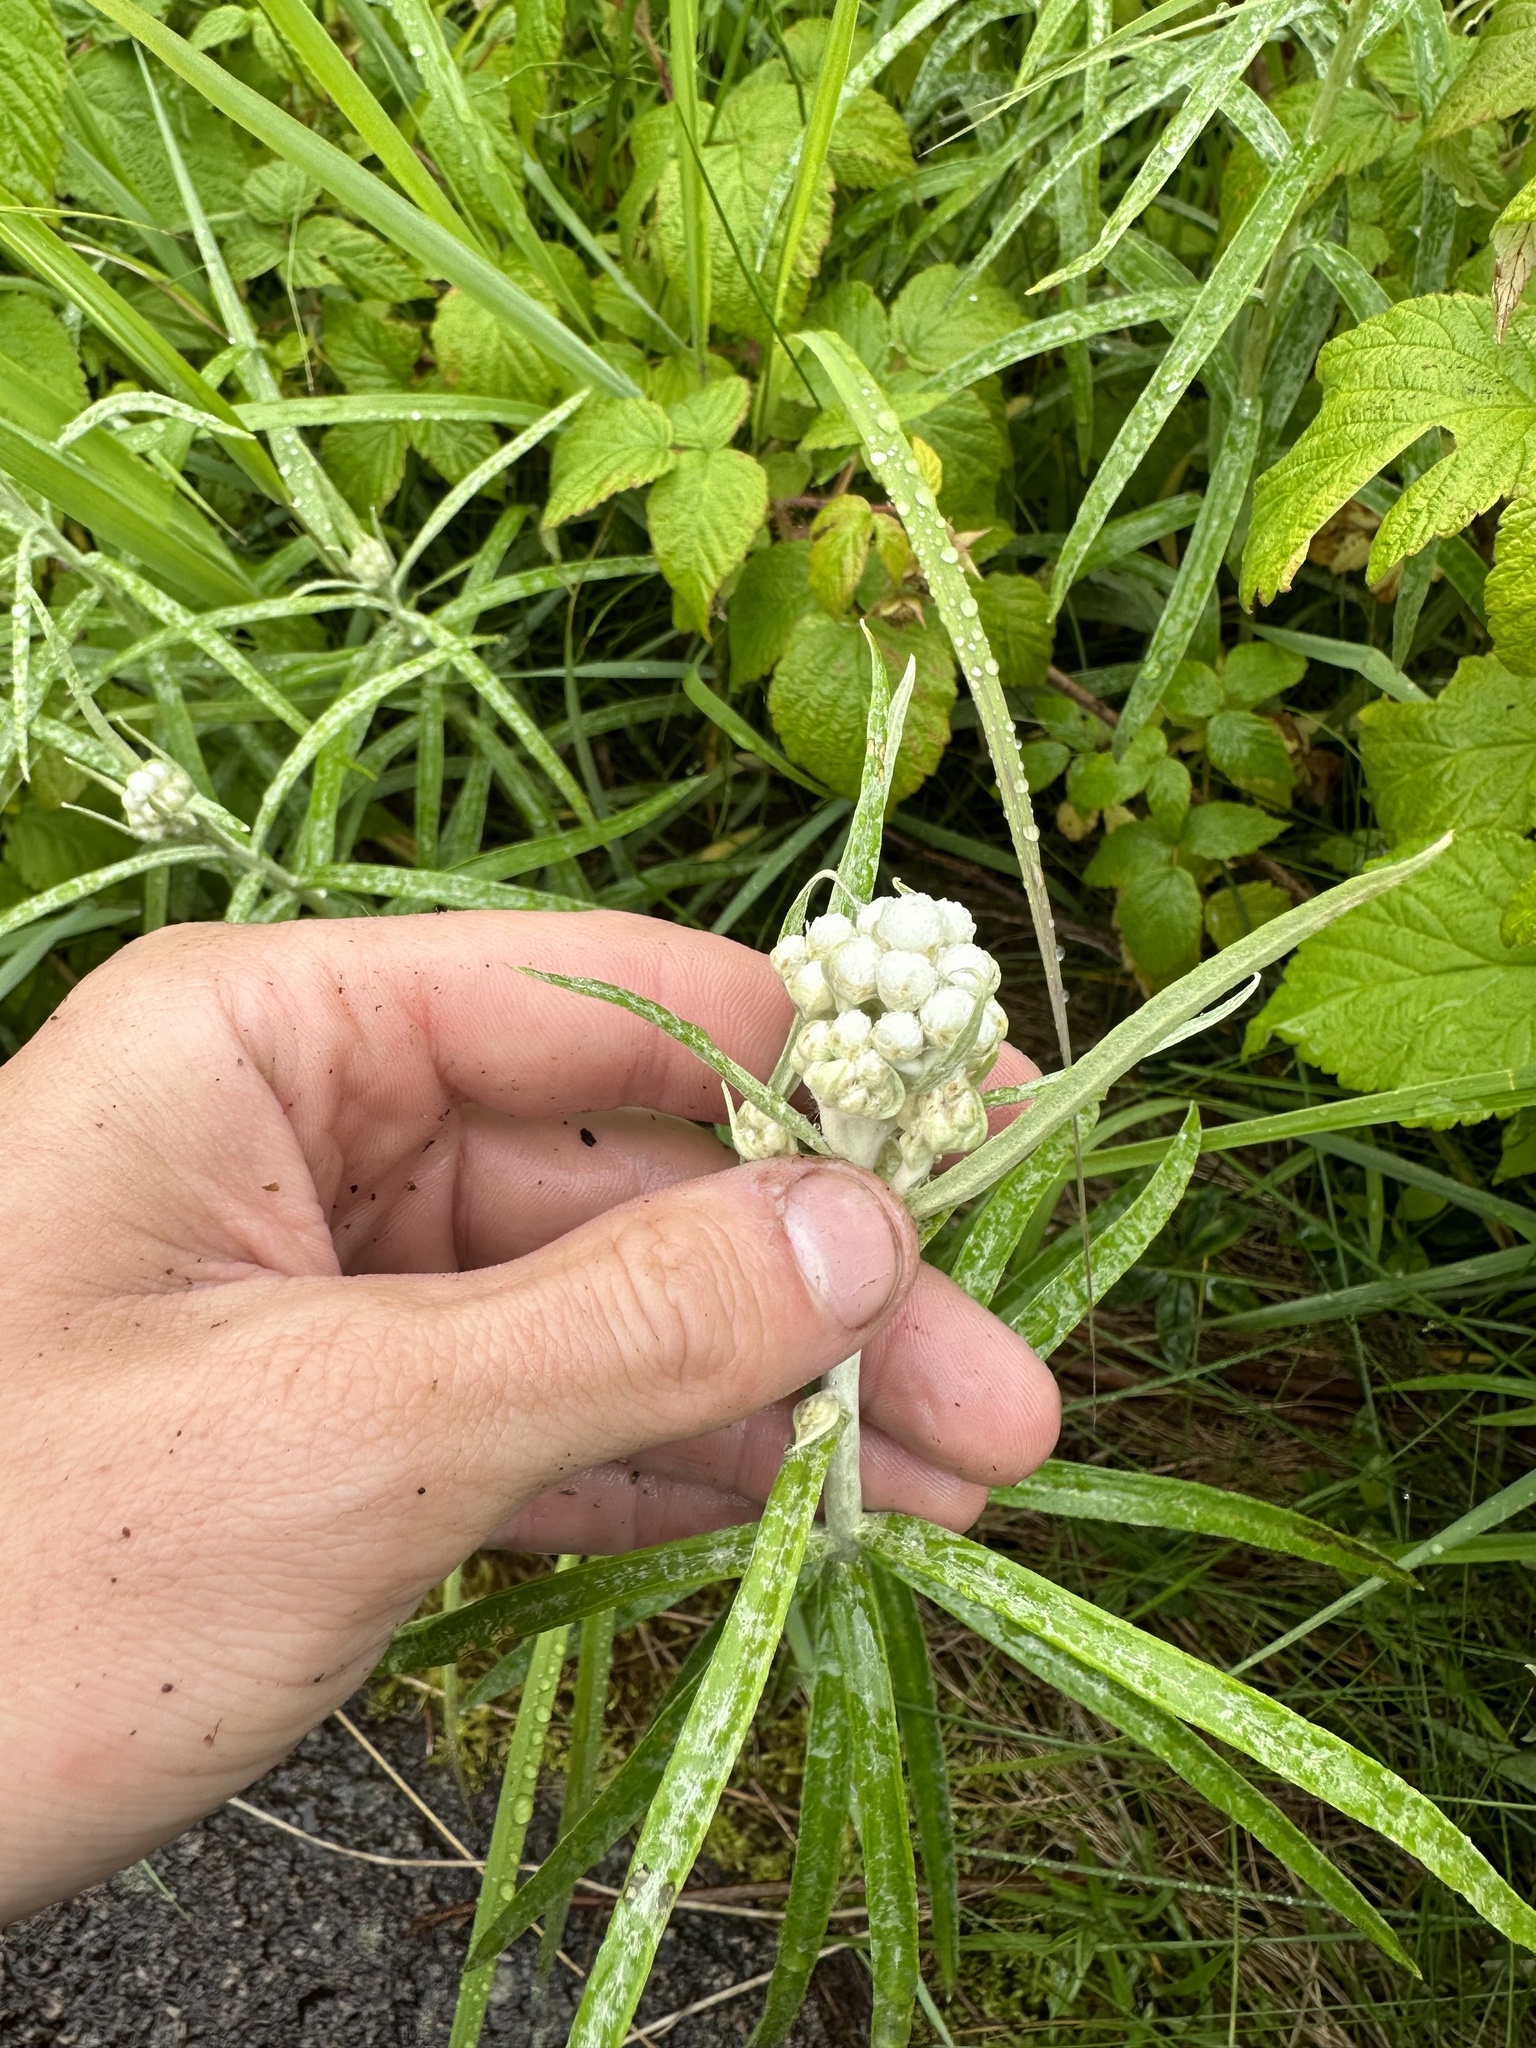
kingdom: Plantae
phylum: Tracheophyta
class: Magnoliopsida
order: Asterales
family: Asteraceae
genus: Anaphalis
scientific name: Anaphalis margaritacea
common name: Pearly everlasting
